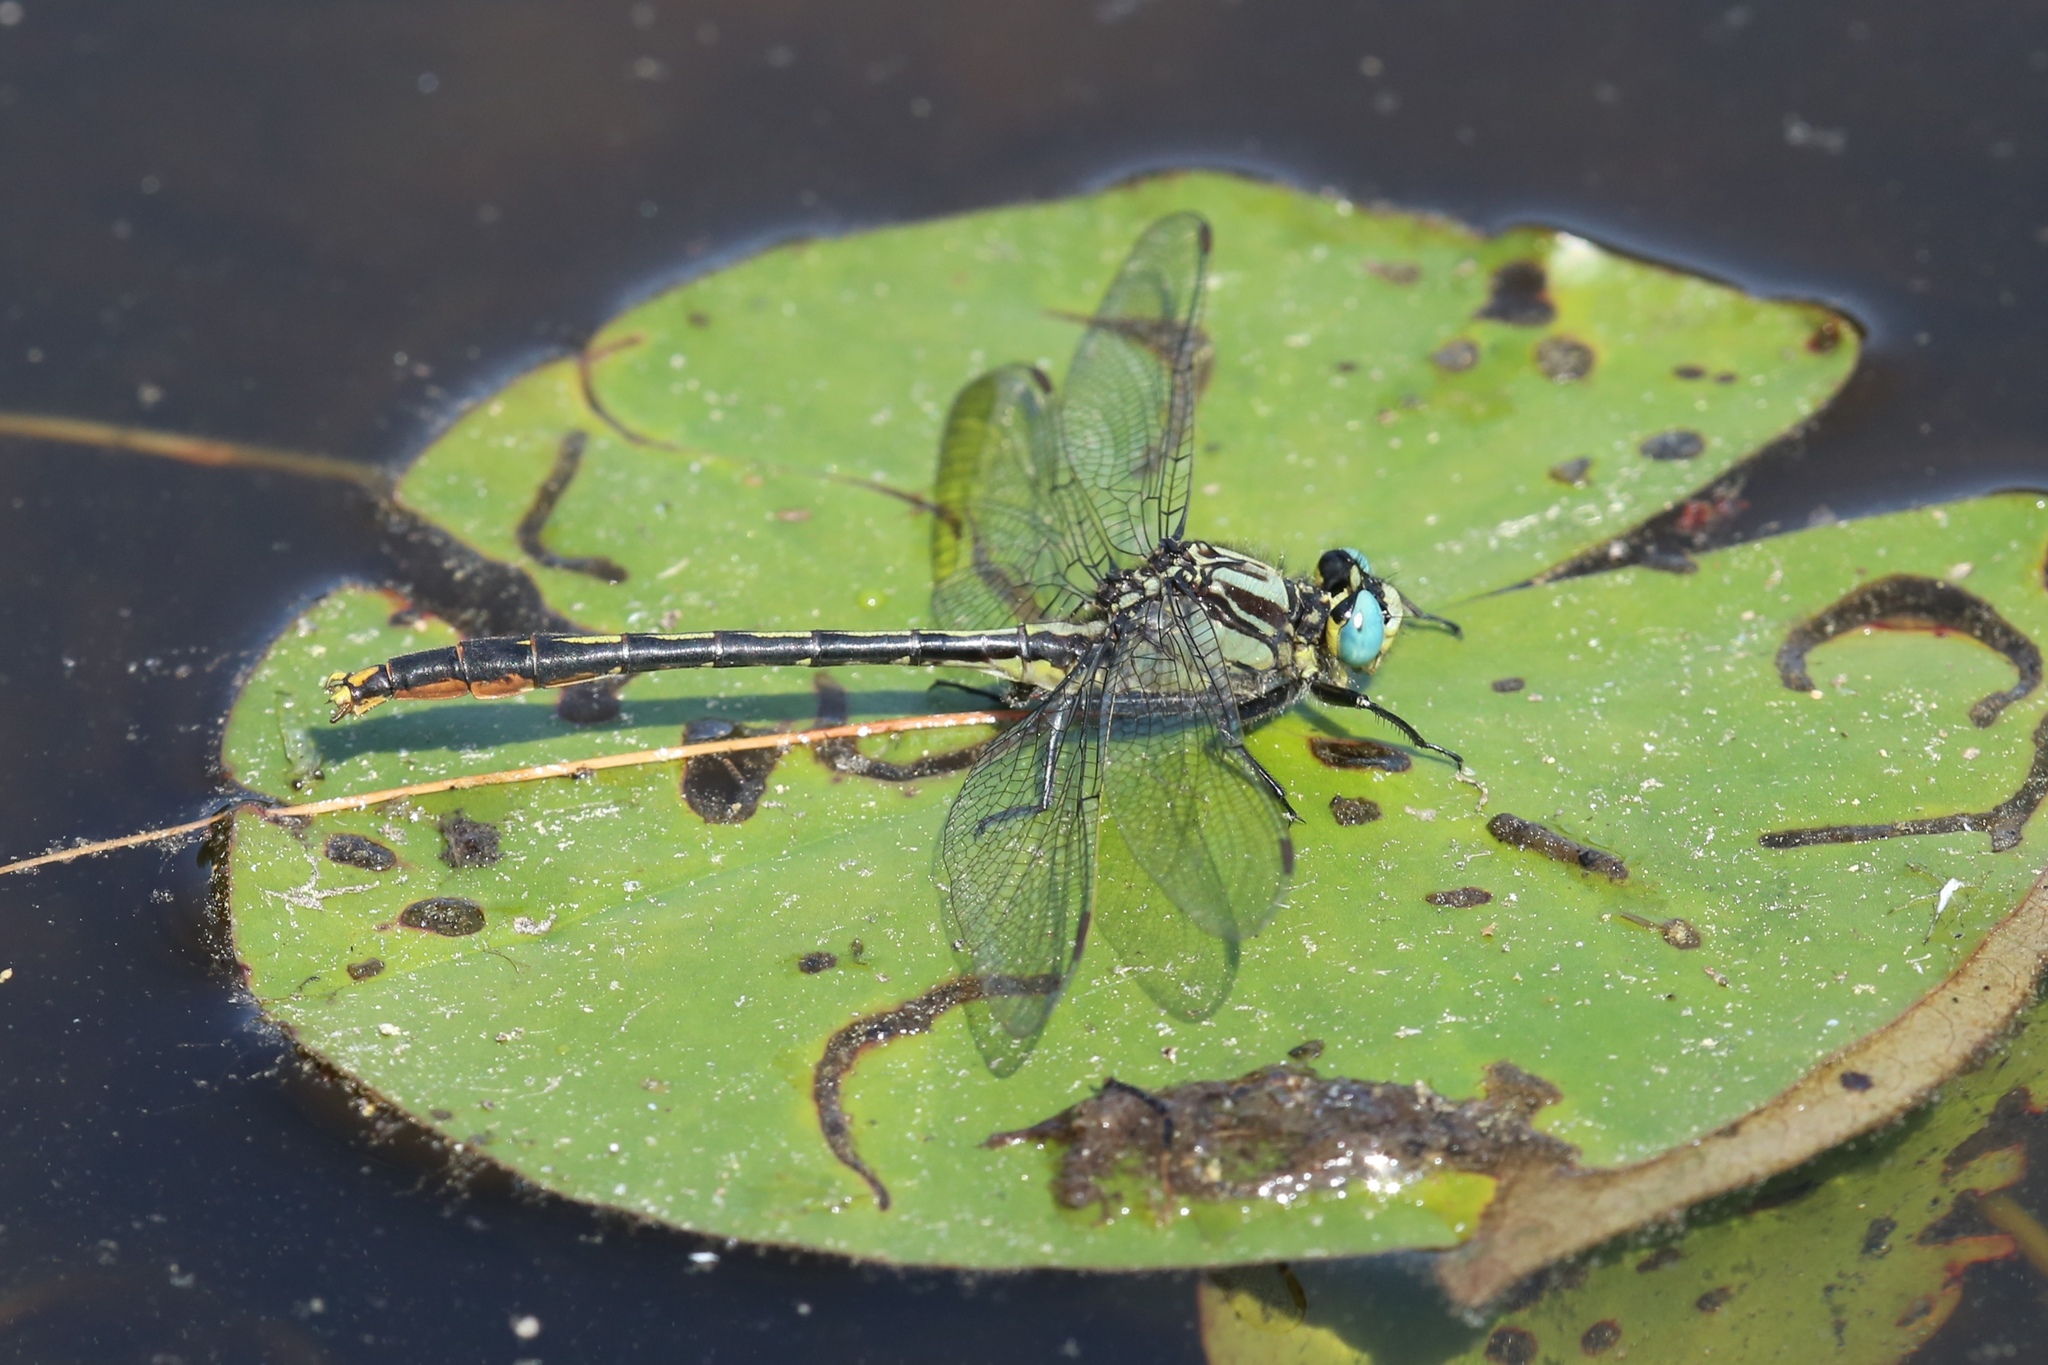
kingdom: Animalia
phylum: Arthropoda
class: Insecta
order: Odonata
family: Gomphidae
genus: Arigomphus
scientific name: Arigomphus furcifer
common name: Lilypad clubtail
